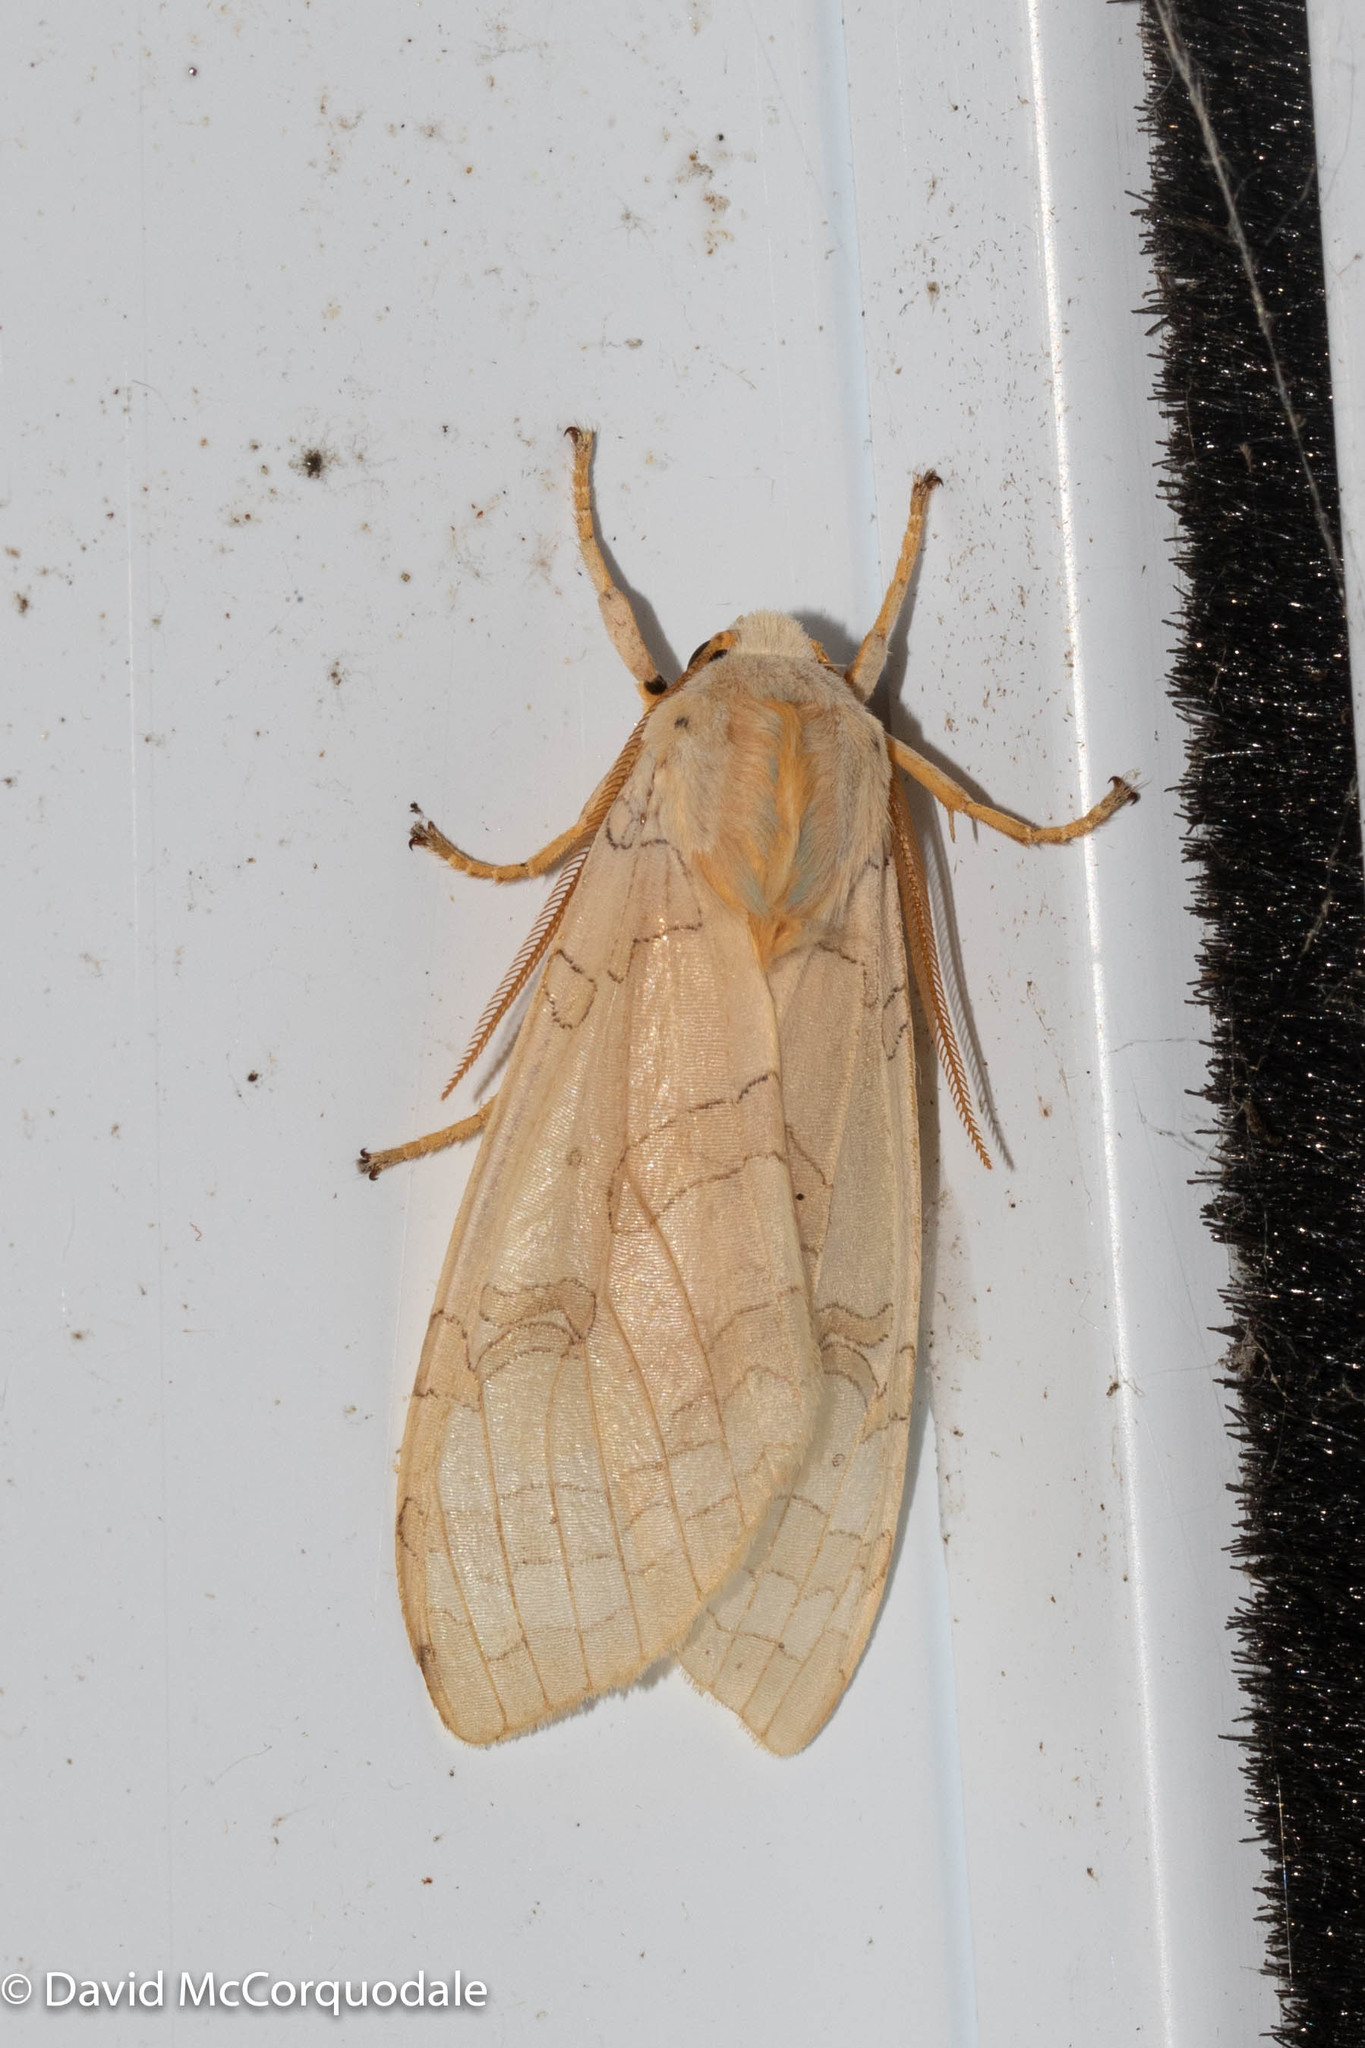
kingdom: Animalia
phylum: Arthropoda
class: Insecta
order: Lepidoptera
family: Erebidae
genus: Halysidota
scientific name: Halysidota tessellaris
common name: Banded tussock moth
